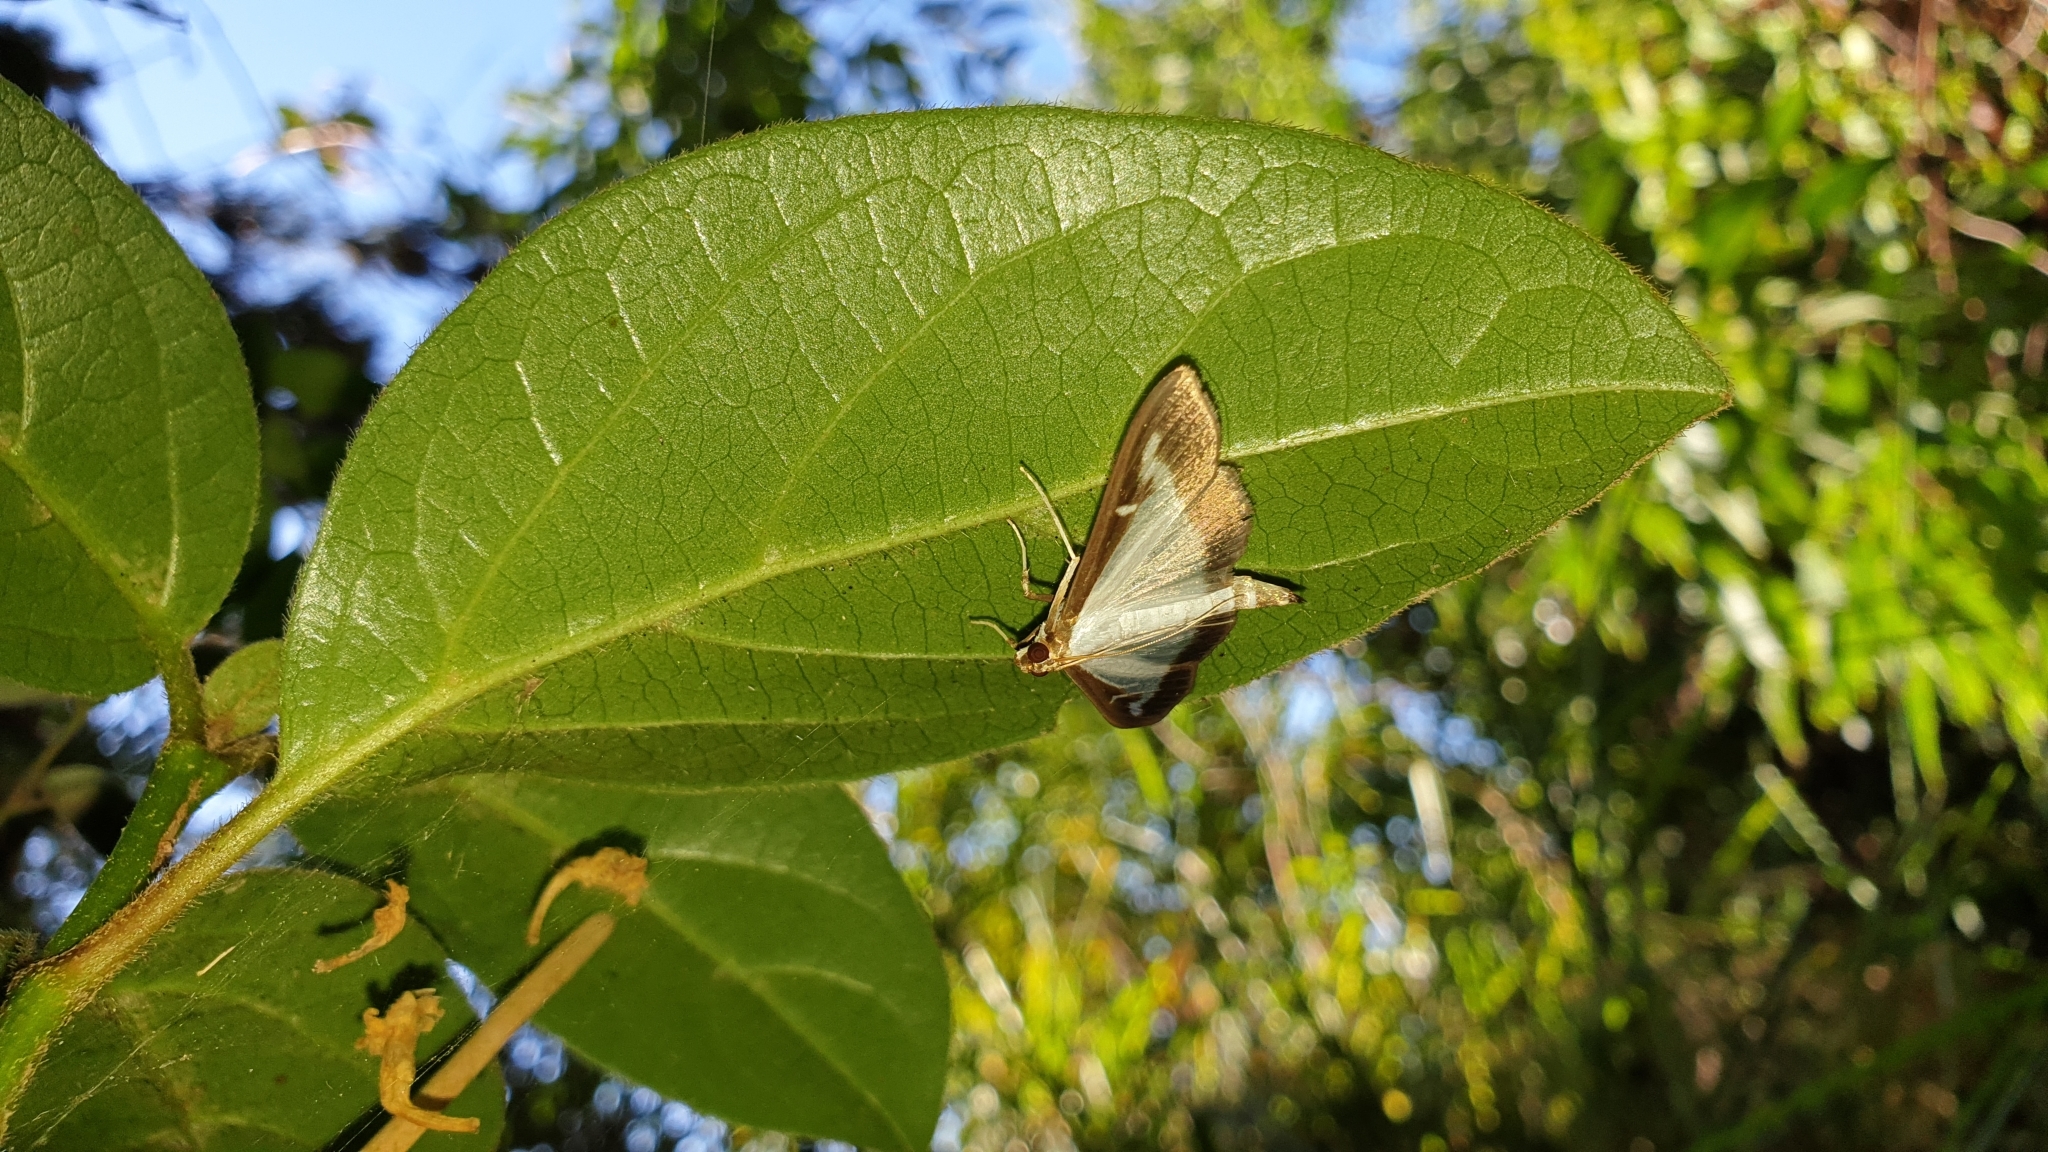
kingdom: Animalia
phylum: Arthropoda
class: Insecta
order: Lepidoptera
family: Crambidae
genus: Cydalima
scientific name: Cydalima perspectalis
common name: Box tree moth
